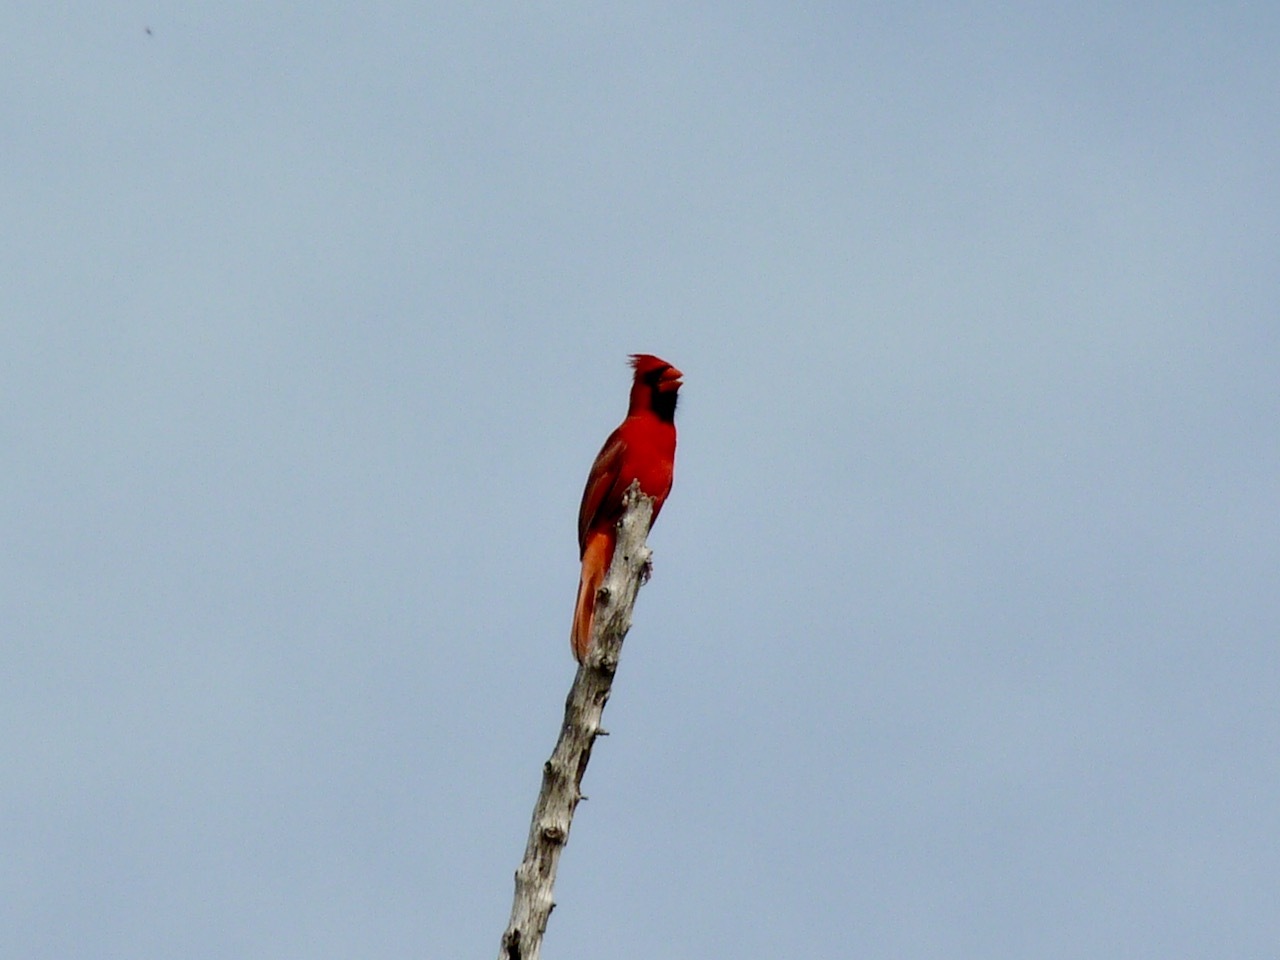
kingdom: Animalia
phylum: Chordata
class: Aves
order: Passeriformes
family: Cardinalidae
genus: Cardinalis
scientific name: Cardinalis cardinalis
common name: Northern cardinal
